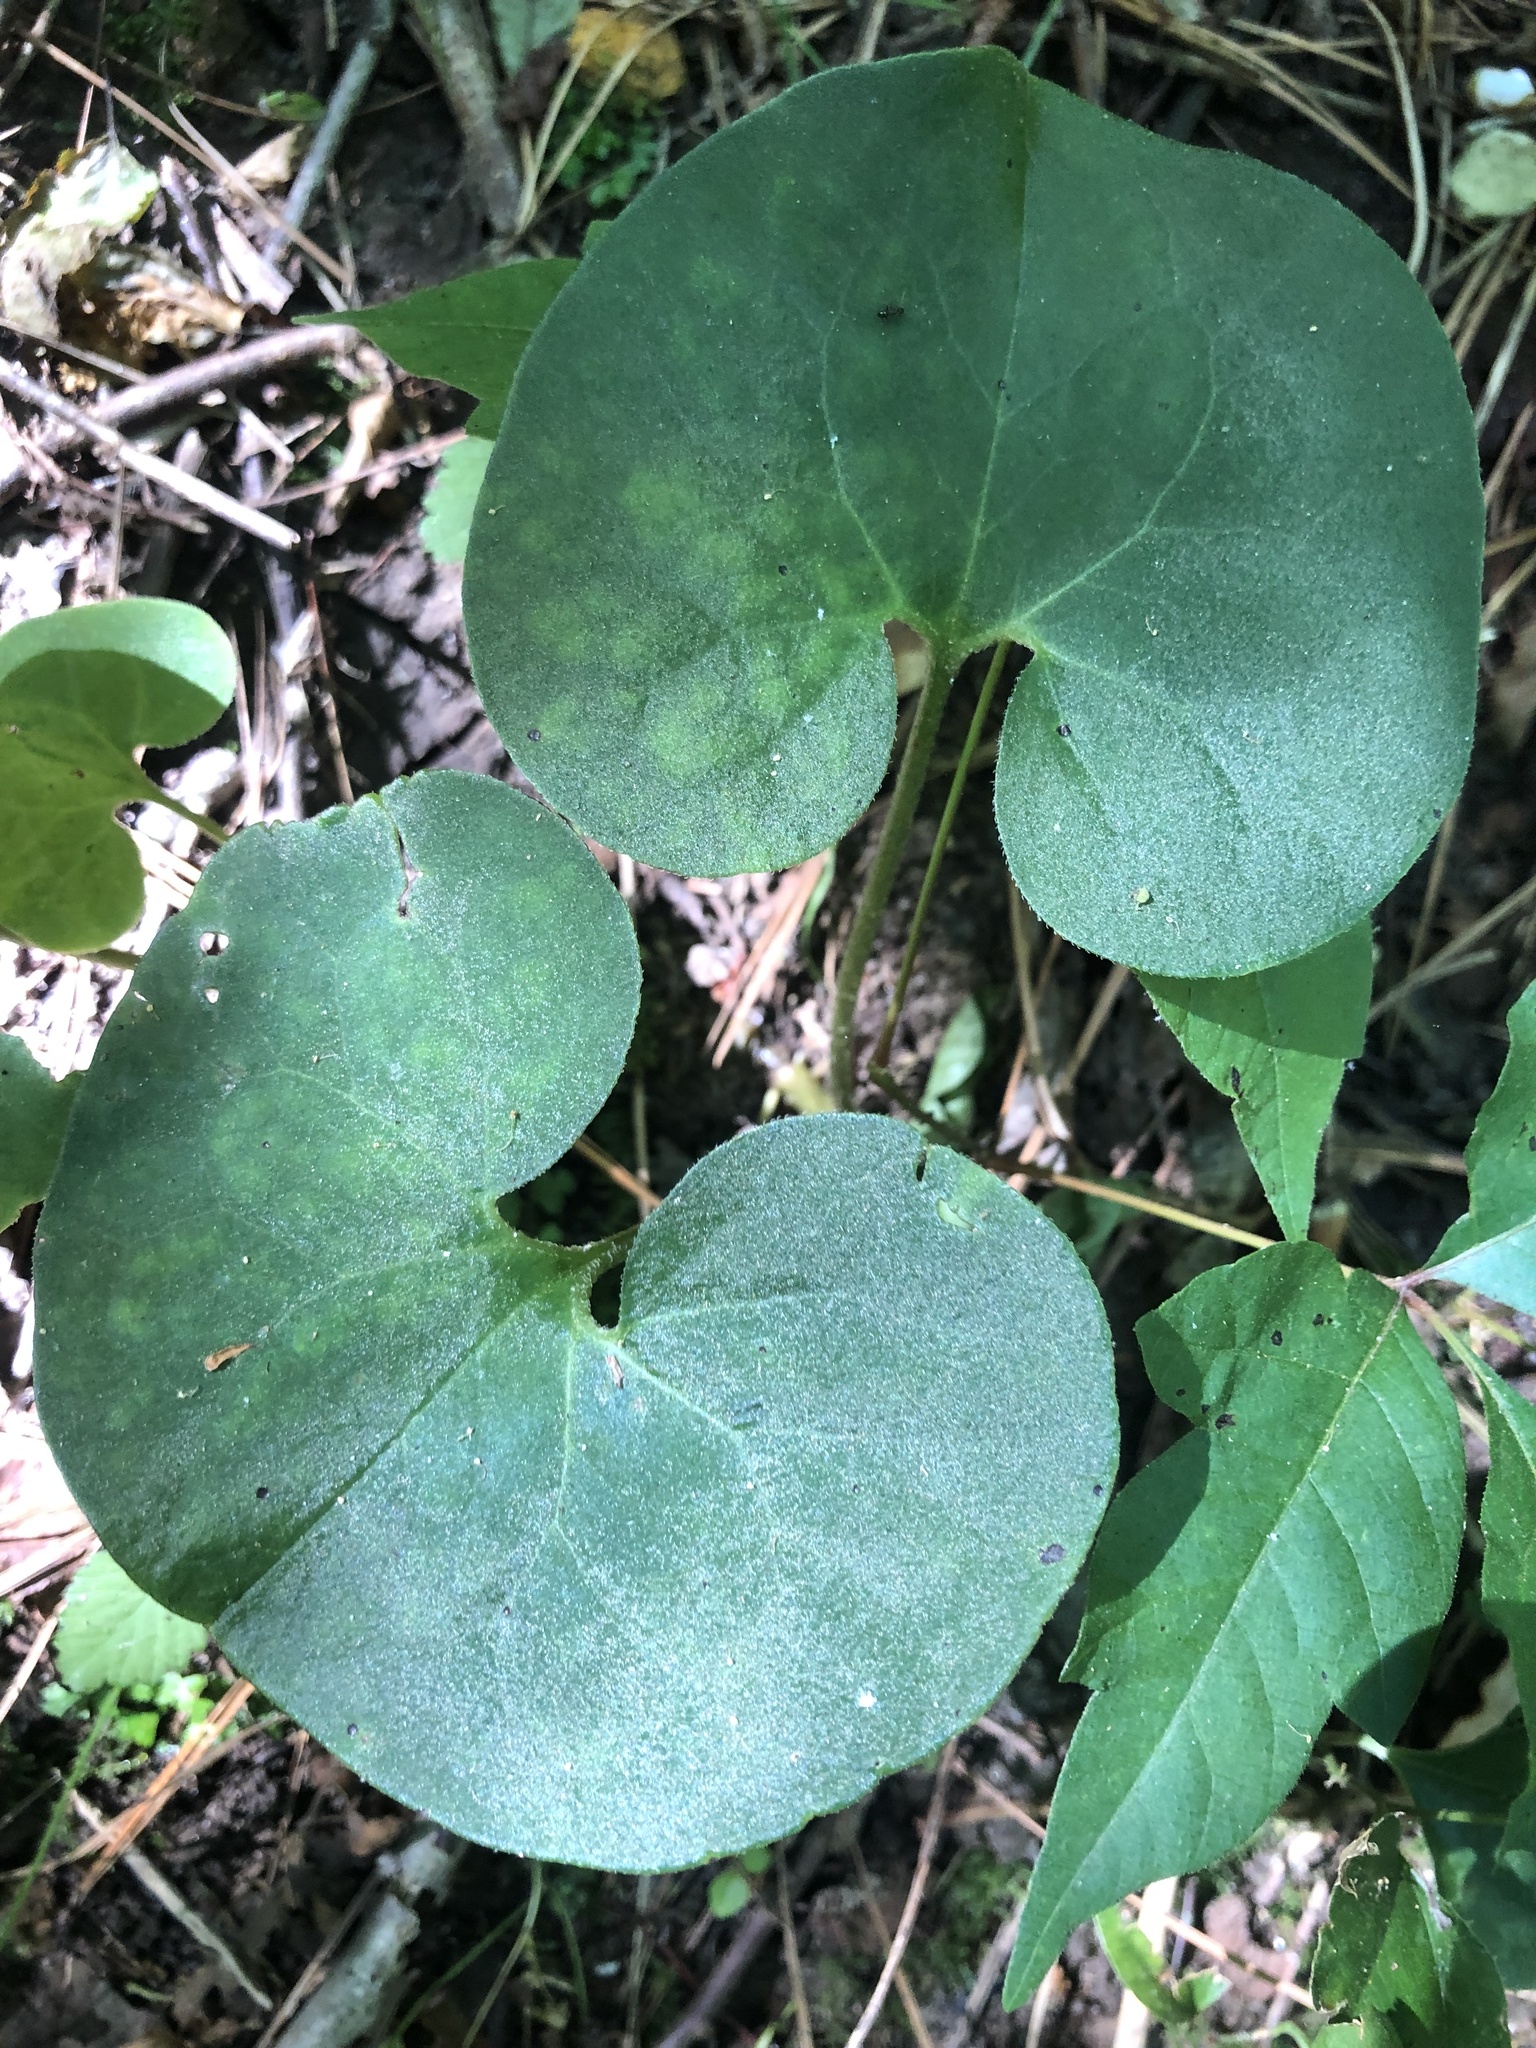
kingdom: Plantae
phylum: Tracheophyta
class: Magnoliopsida
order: Piperales
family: Aristolochiaceae
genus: Asarum
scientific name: Asarum canadense
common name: Wild ginger
